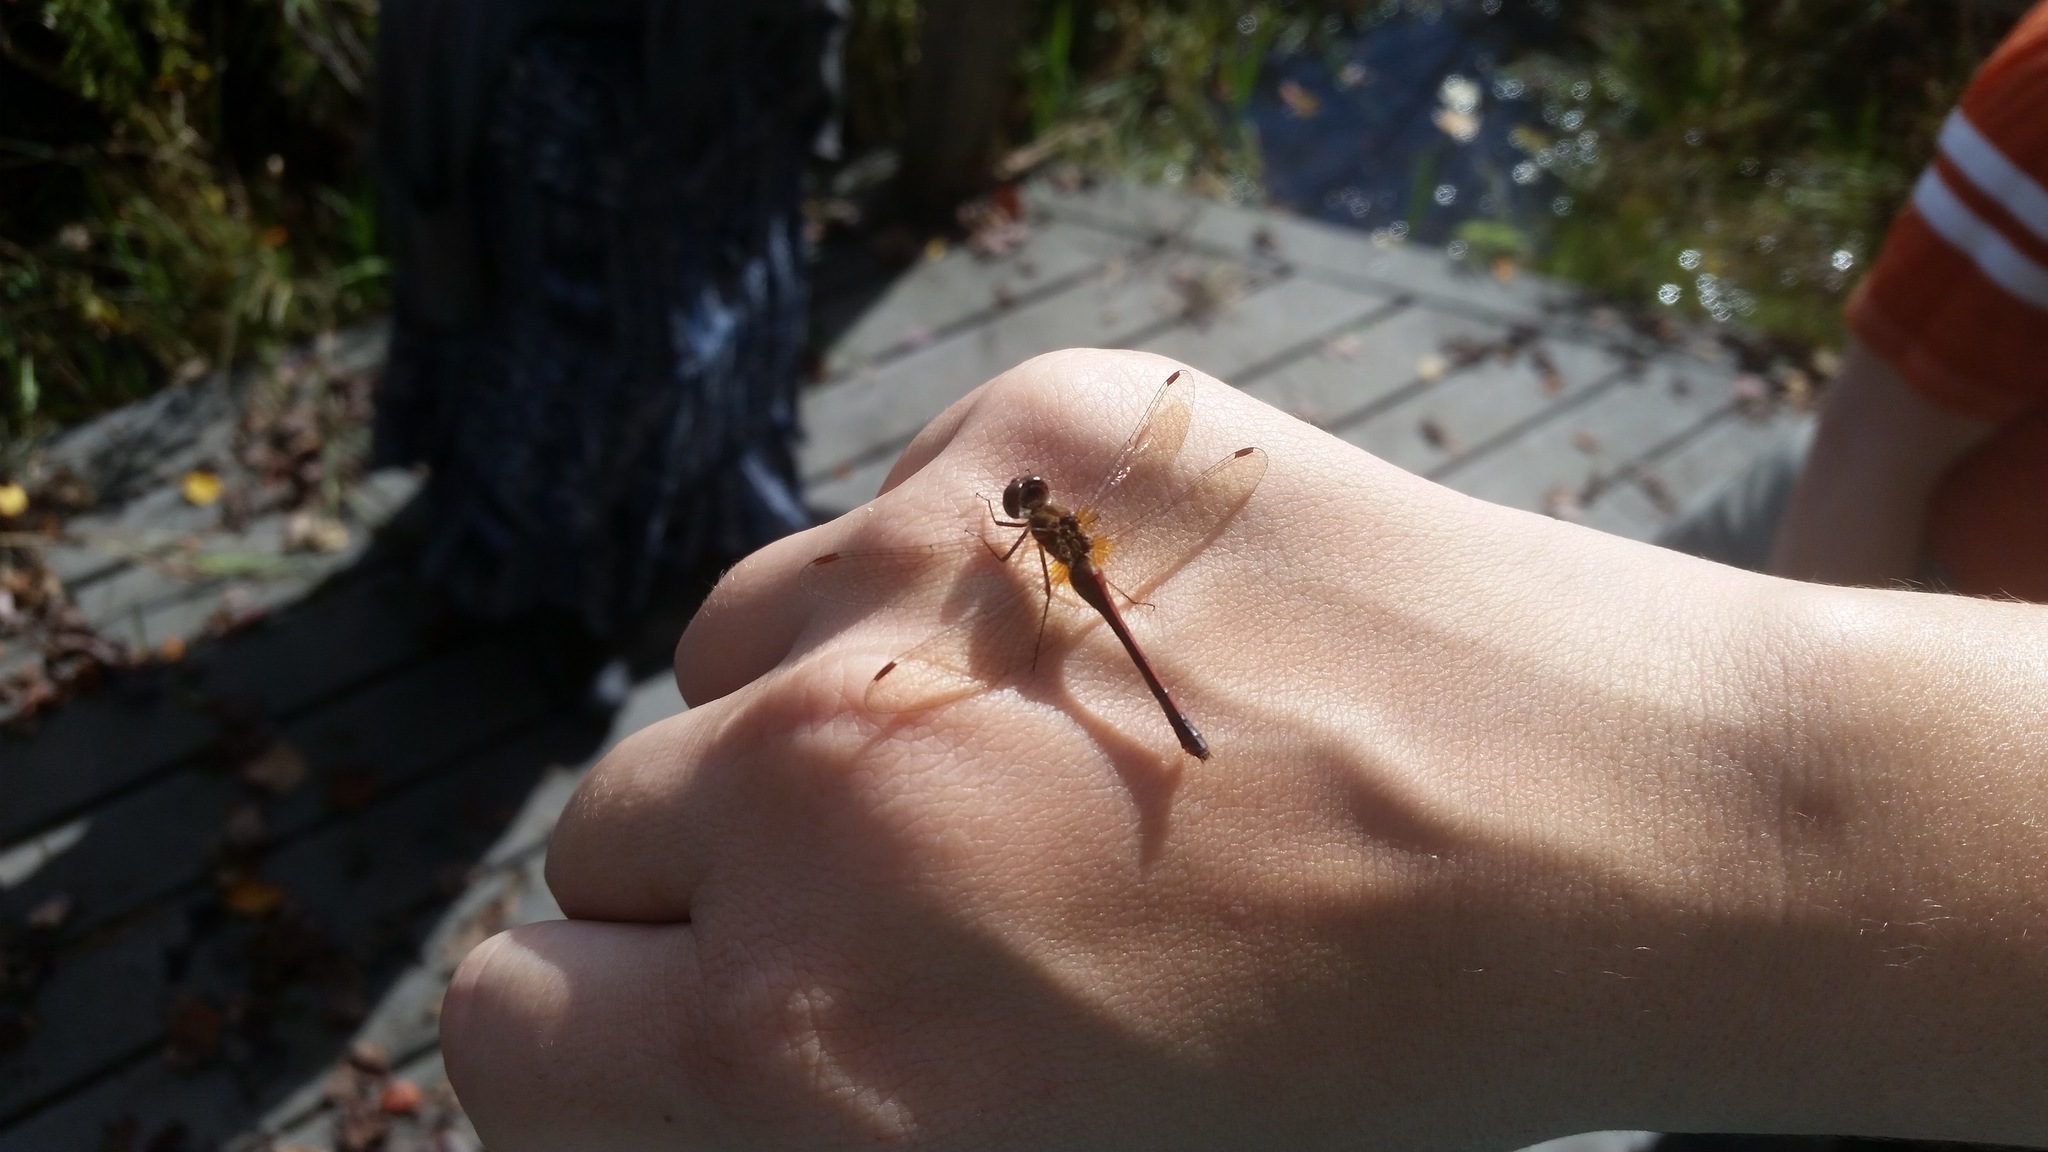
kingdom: Animalia
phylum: Arthropoda
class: Insecta
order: Odonata
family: Libellulidae
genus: Sympetrum
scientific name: Sympetrum vicinum
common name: Autumn meadowhawk
